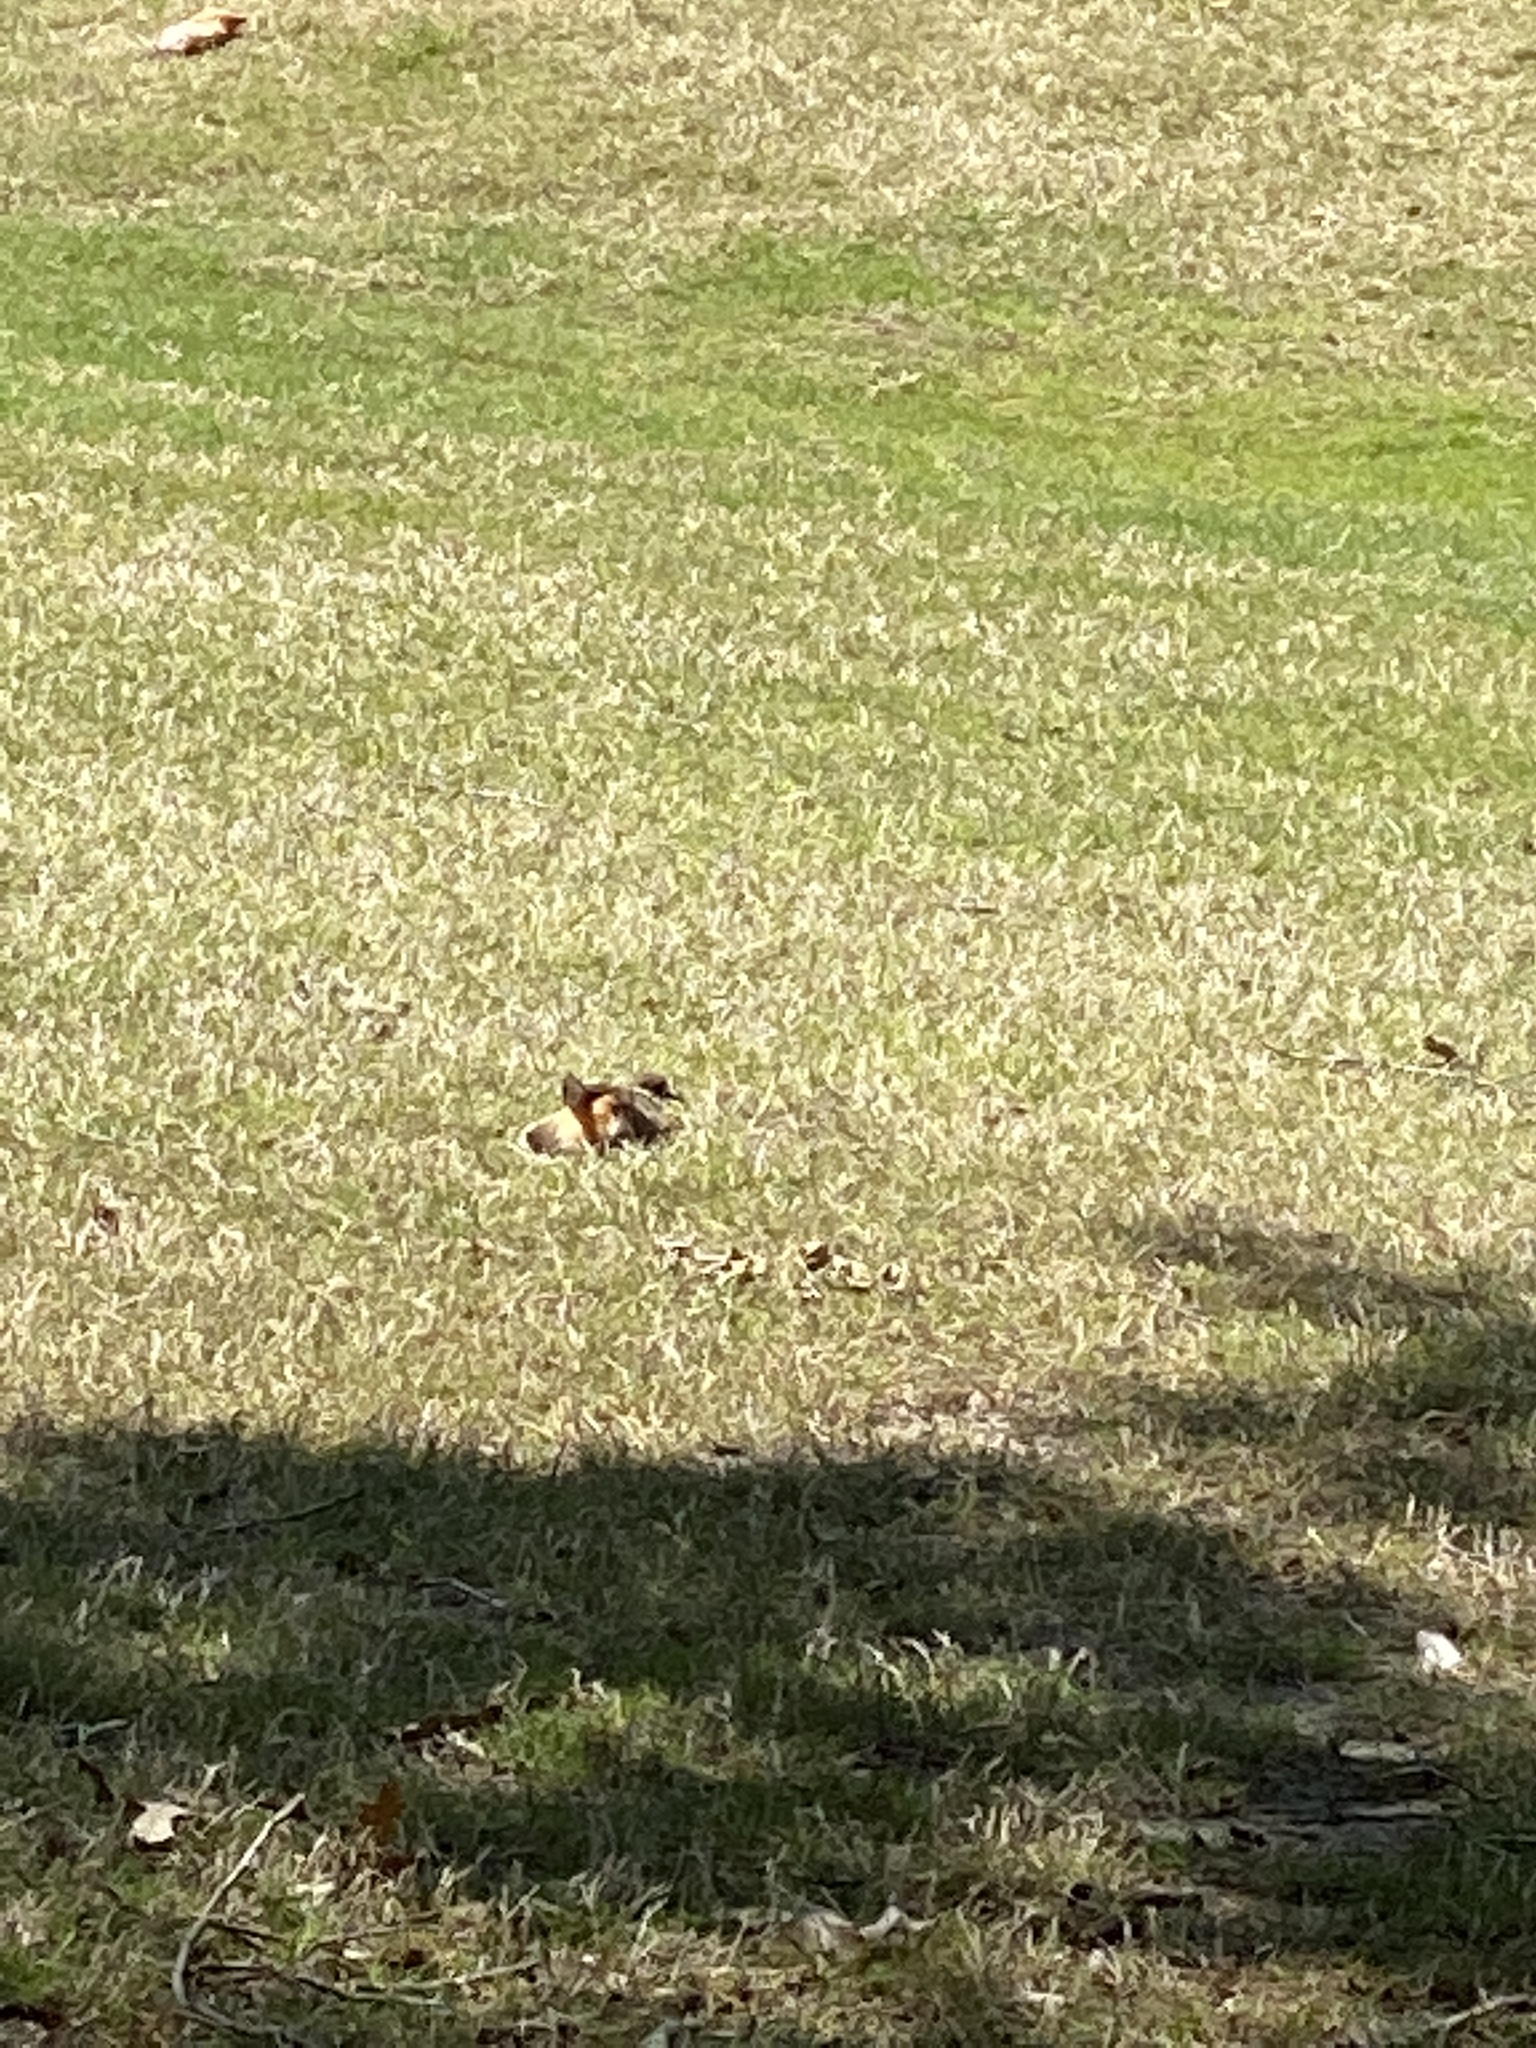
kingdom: Animalia
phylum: Chordata
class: Aves
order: Charadriiformes
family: Charadriidae
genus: Charadrius
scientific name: Charadrius vociferus
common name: Killdeer
